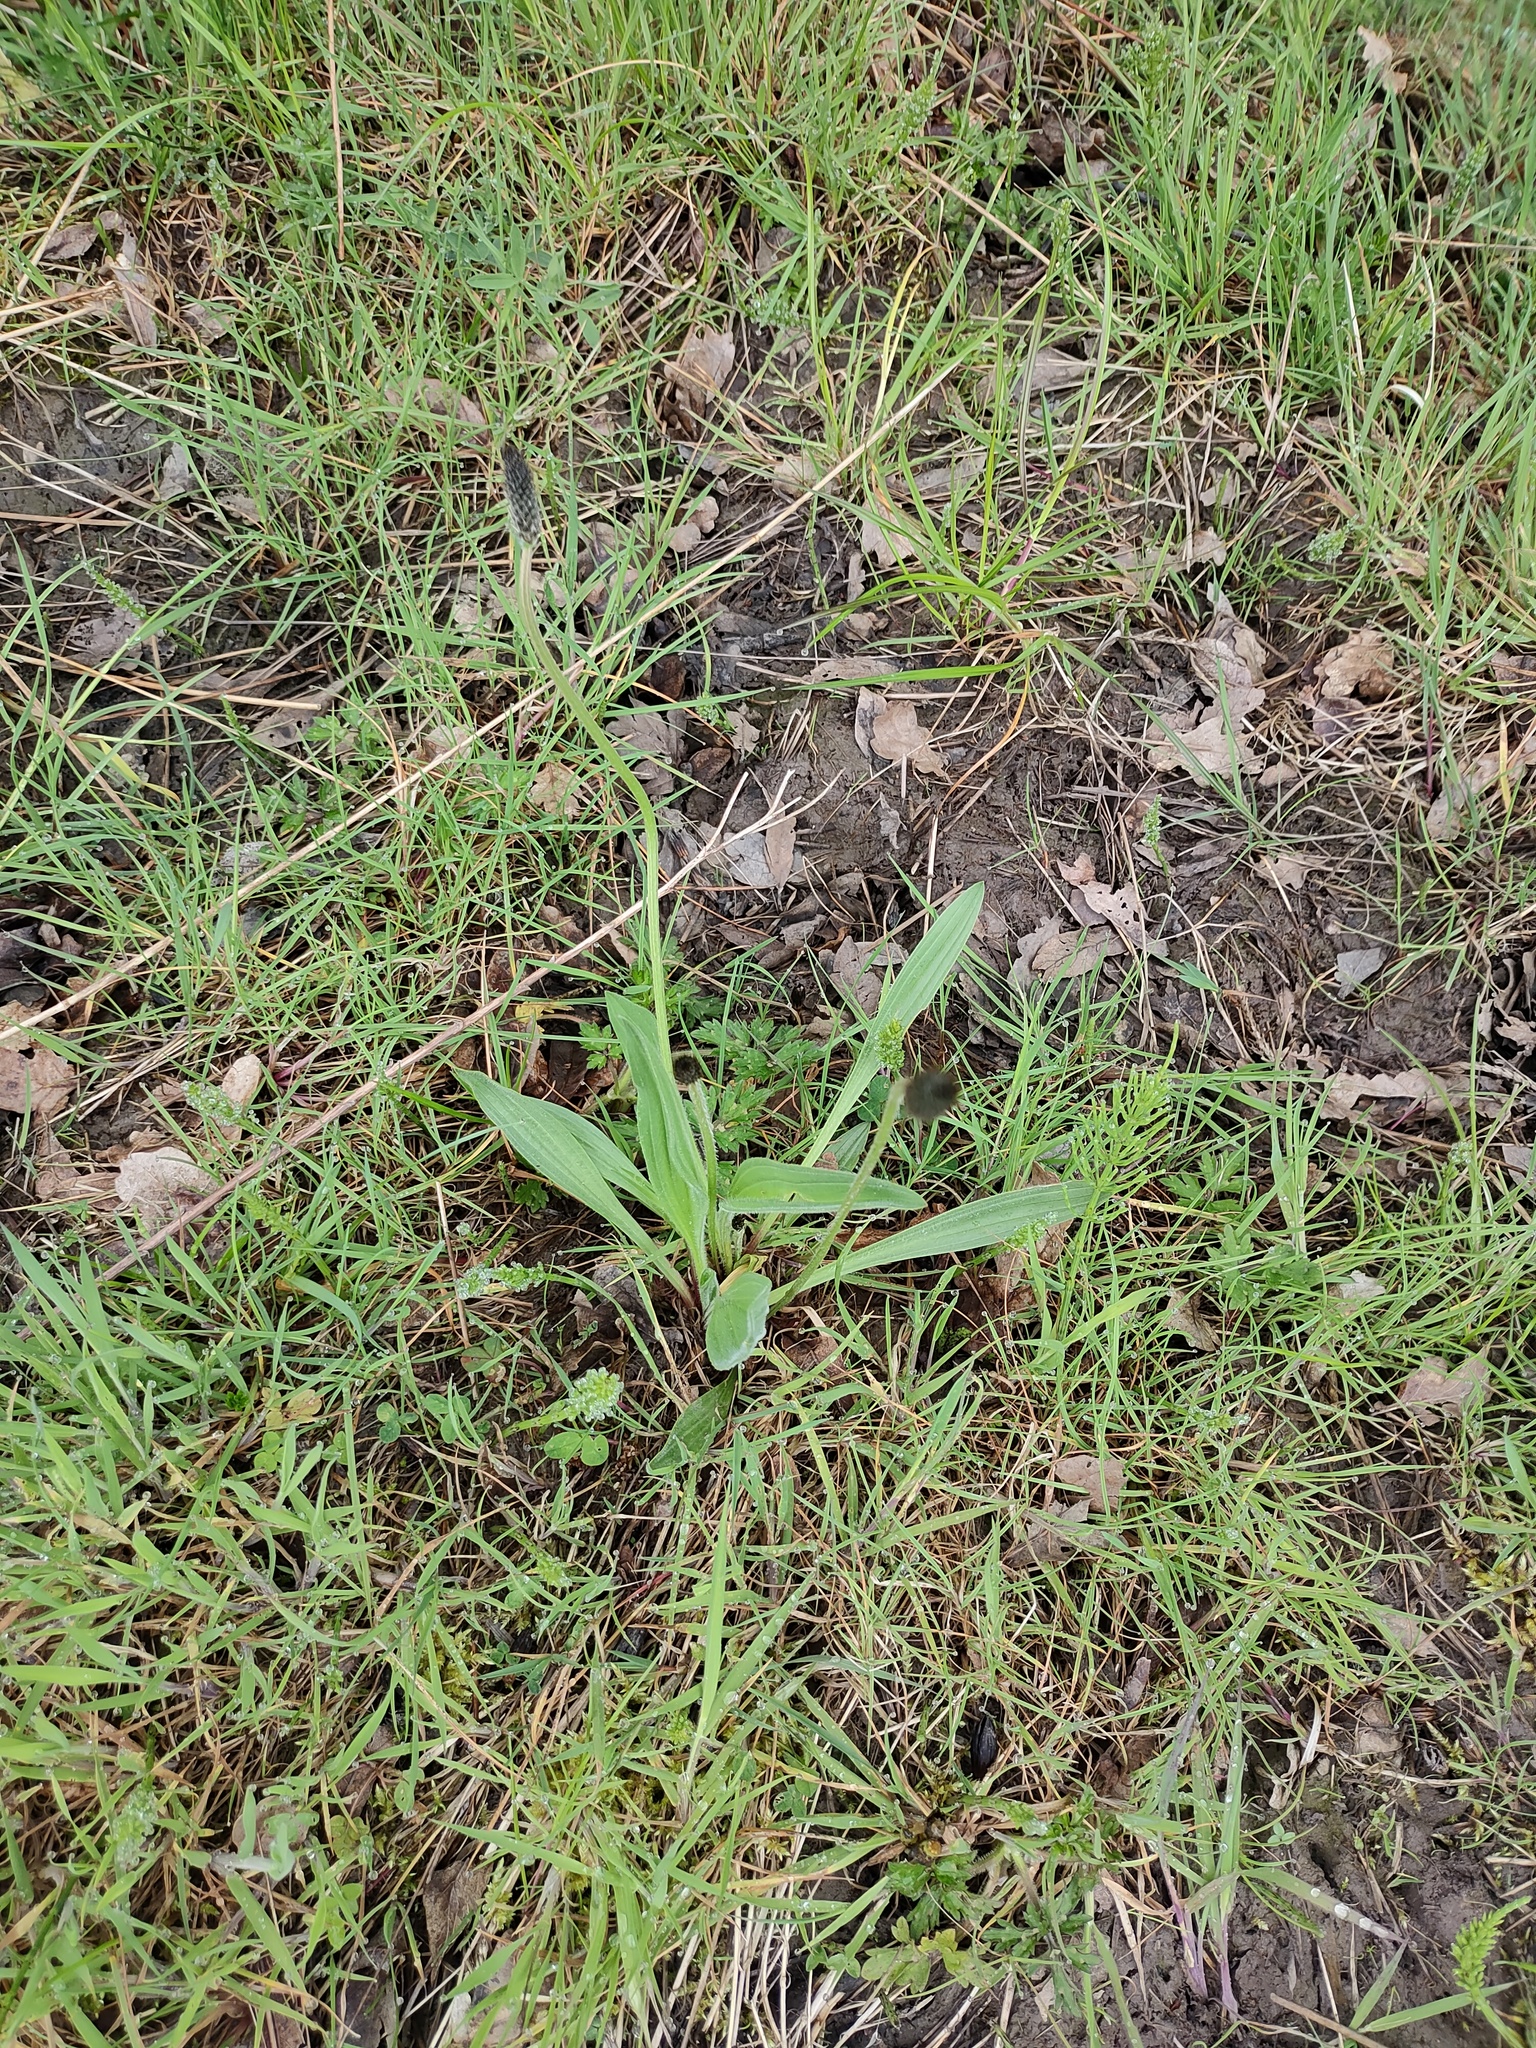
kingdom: Plantae
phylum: Tracheophyta
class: Magnoliopsida
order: Lamiales
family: Plantaginaceae
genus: Plantago
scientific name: Plantago lanceolata
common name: Ribwort plantain
